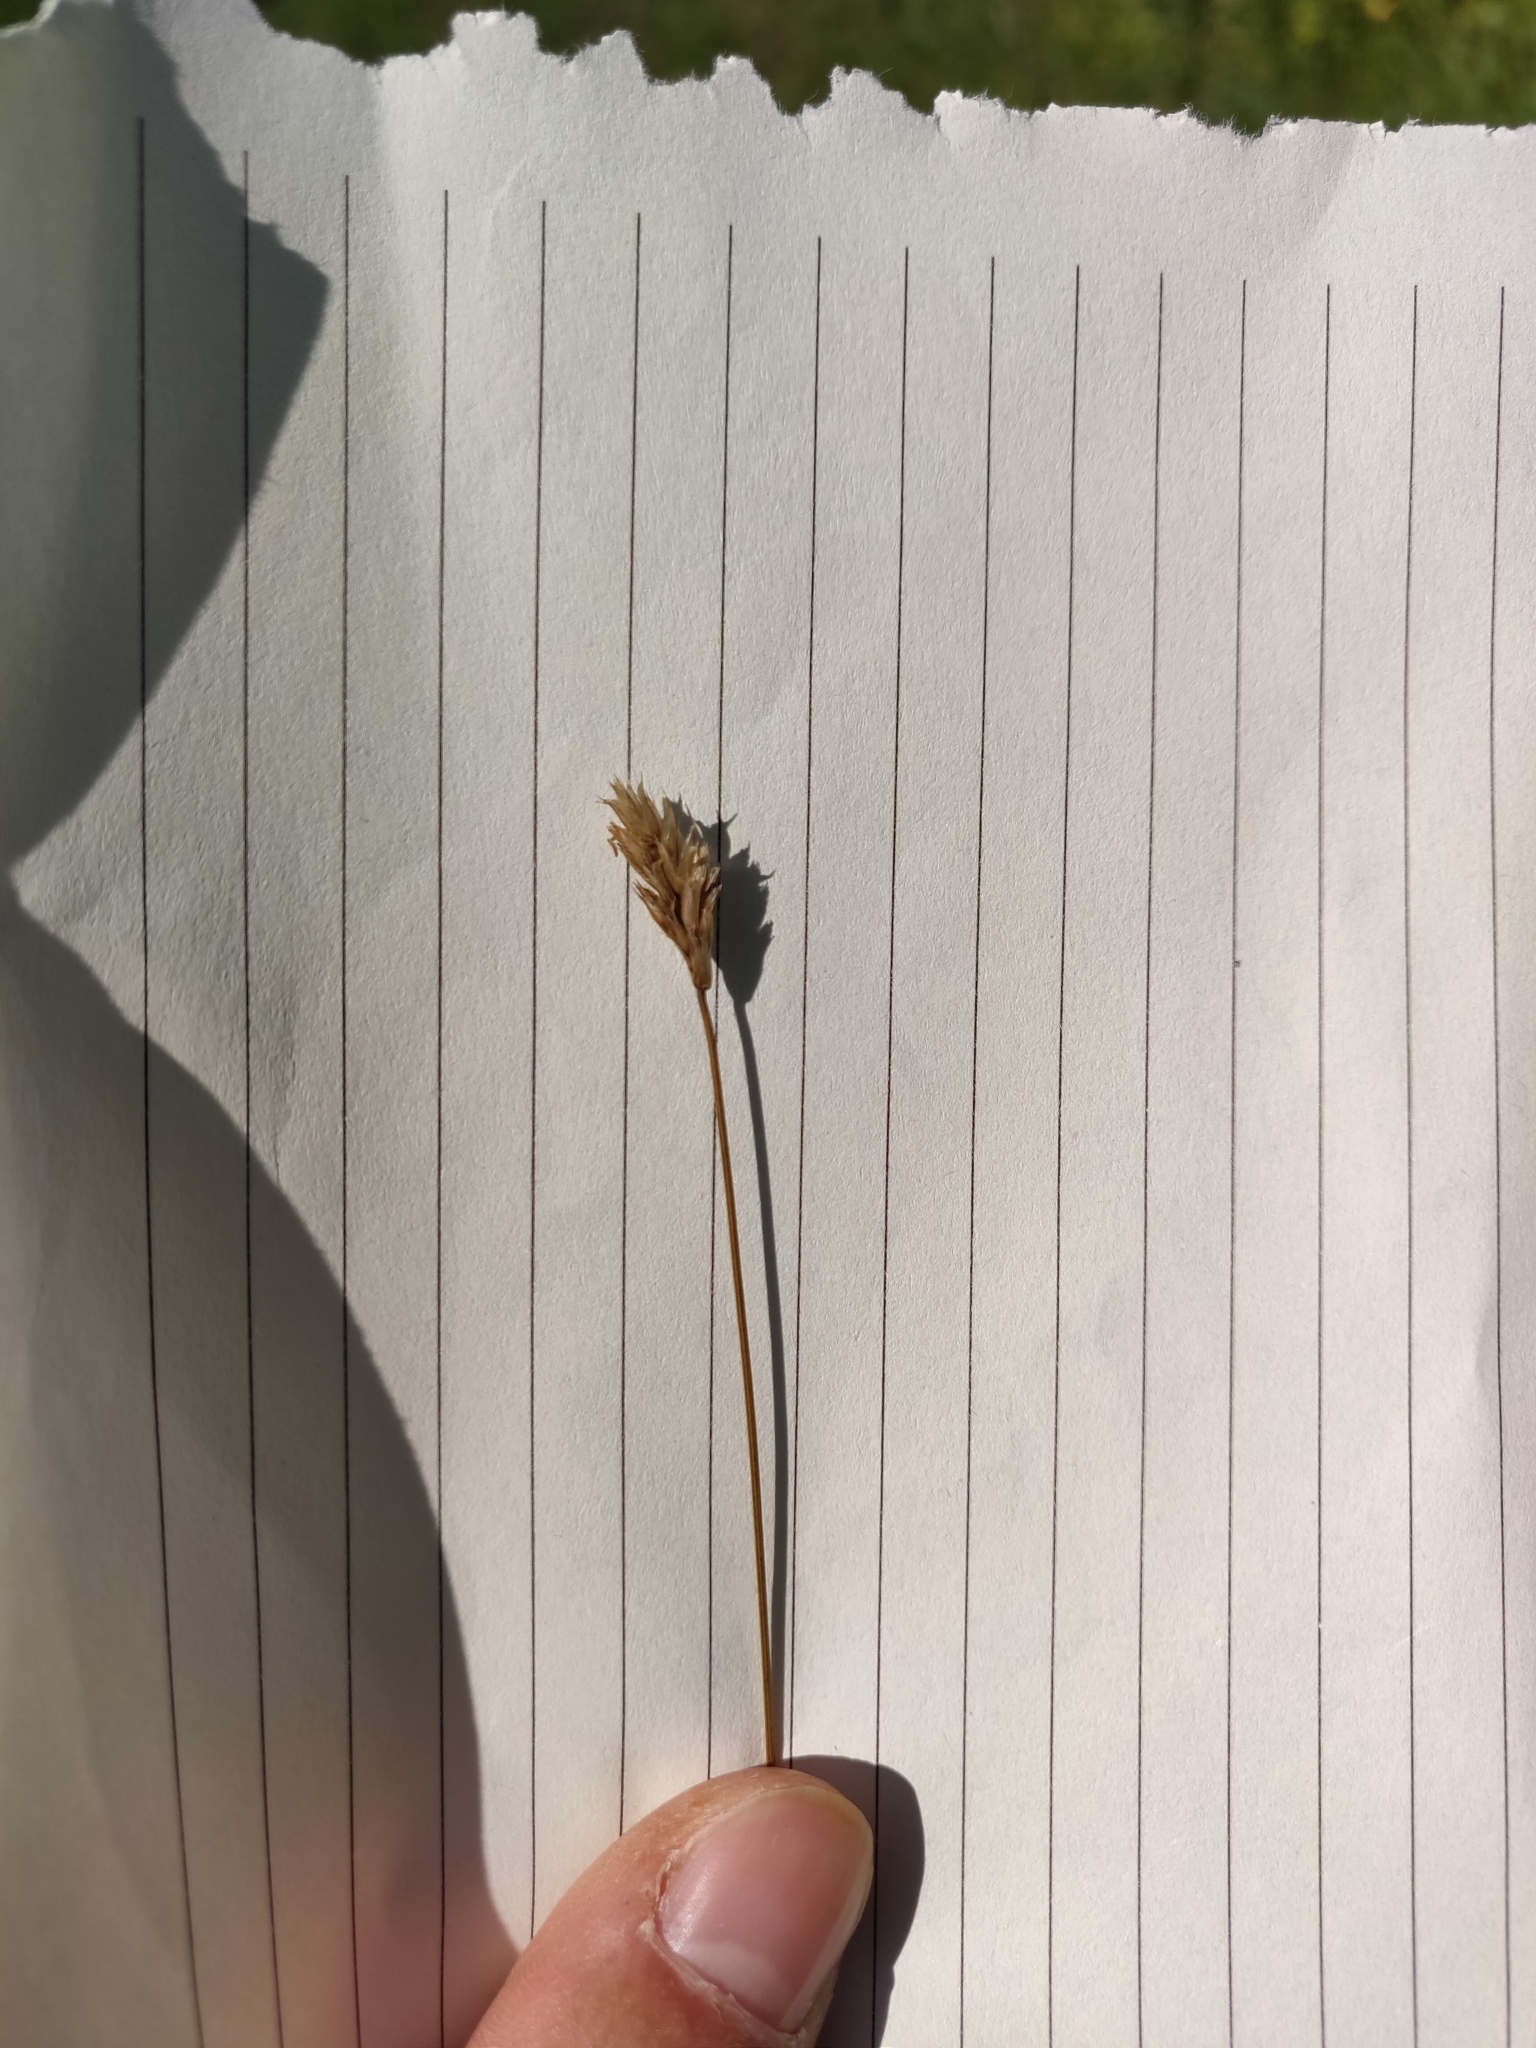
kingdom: Plantae
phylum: Tracheophyta
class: Liliopsida
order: Poales
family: Poaceae
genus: Sesleria
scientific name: Sesleria caerulea
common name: Blue moor-grass
